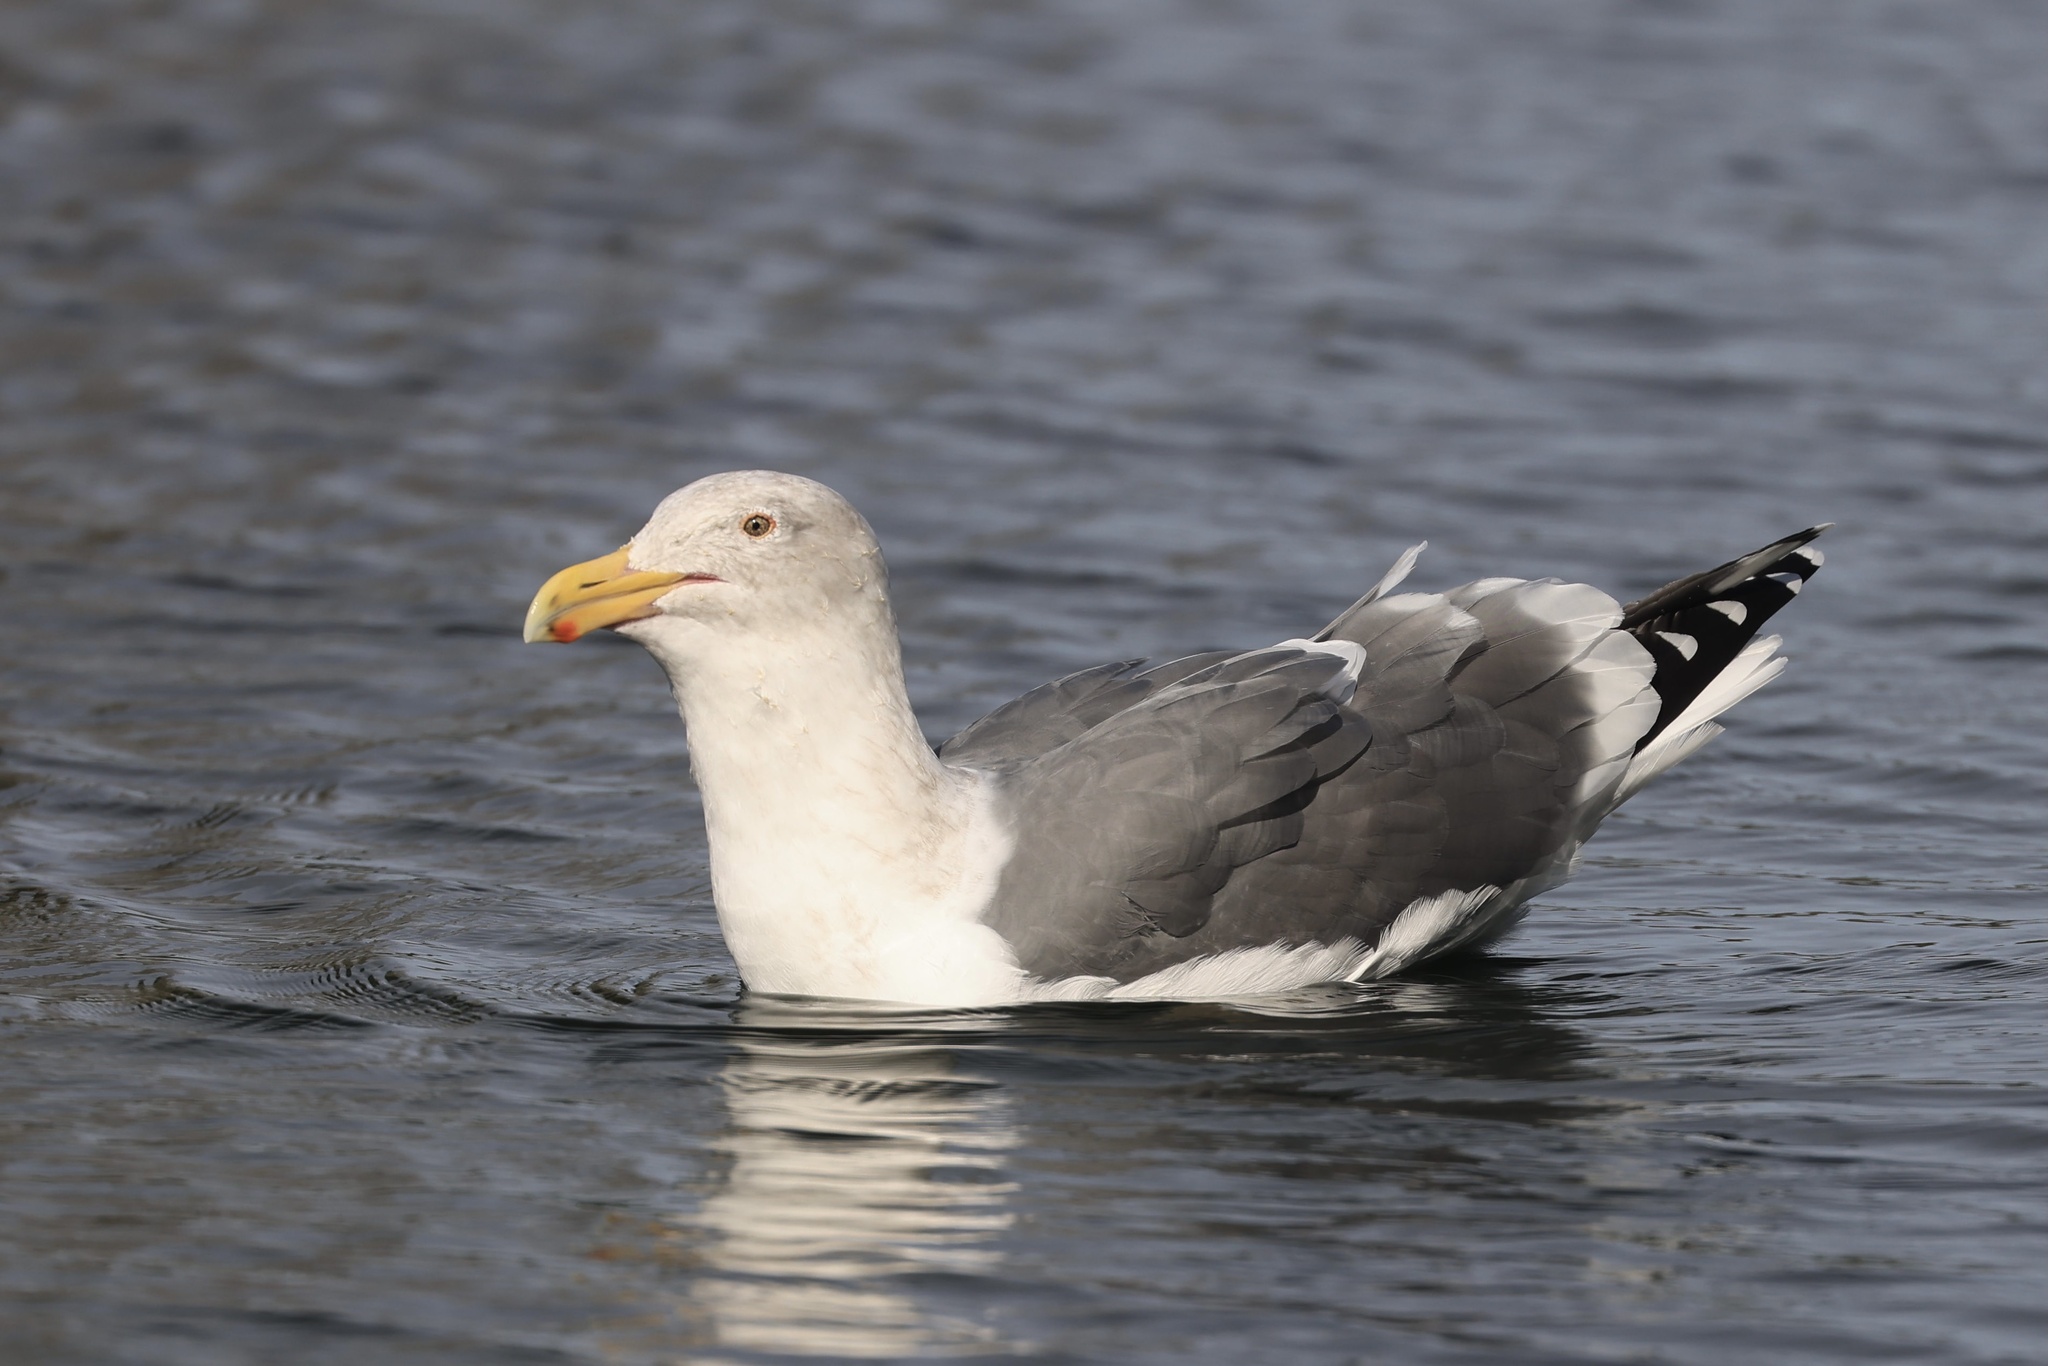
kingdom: Animalia
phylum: Chordata
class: Aves
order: Charadriiformes
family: Laridae
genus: Larus
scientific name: Larus occidentalis
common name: Western gull
